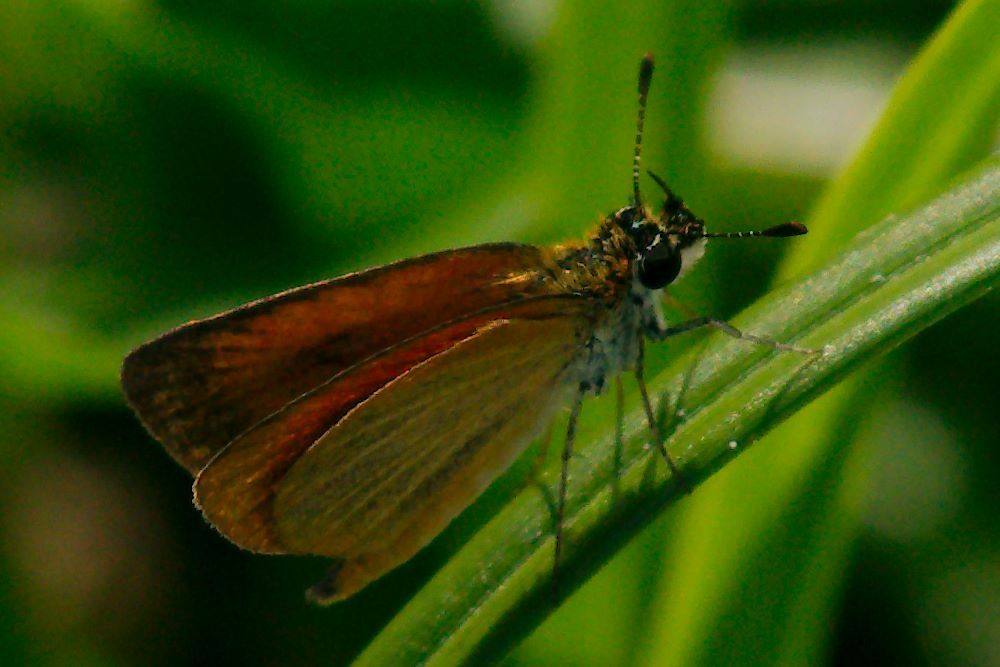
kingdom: Animalia
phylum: Arthropoda
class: Insecta
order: Lepidoptera
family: Hesperiidae
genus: Ancyloxypha
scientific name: Ancyloxypha numitor
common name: Least skipper
